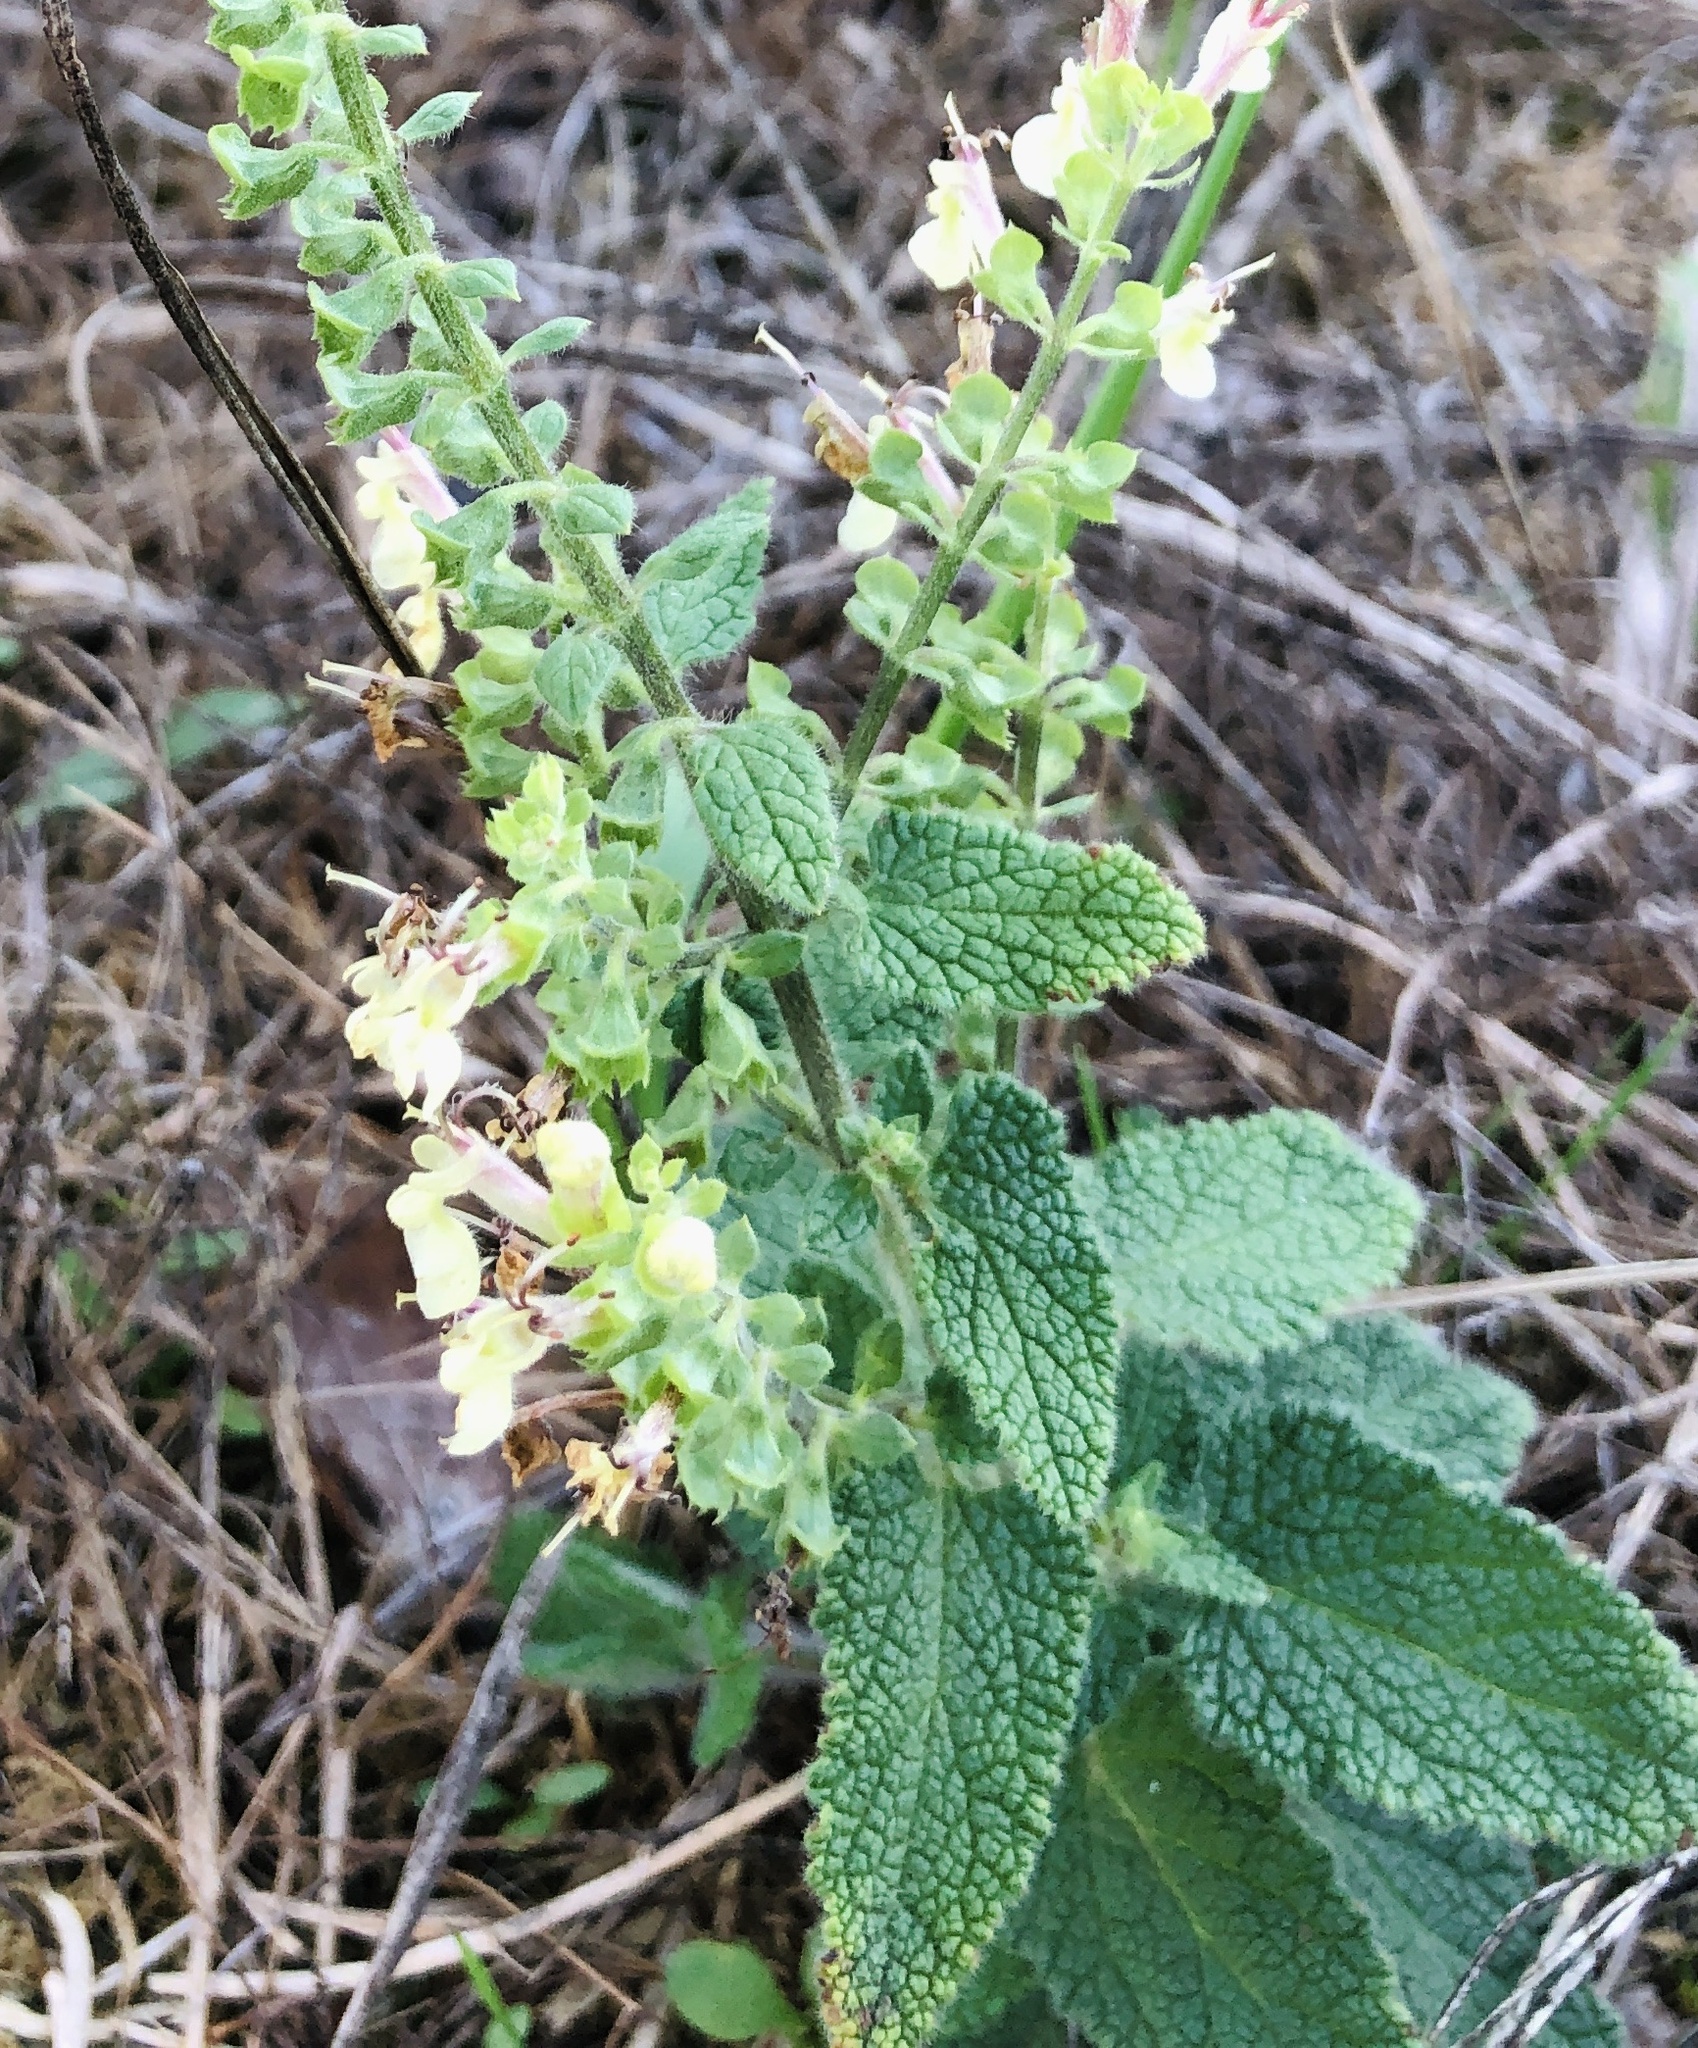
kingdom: Plantae
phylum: Tracheophyta
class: Magnoliopsida
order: Lamiales
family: Lamiaceae
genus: Teucrium
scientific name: Teucrium scorodonia
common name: Woodland germander
